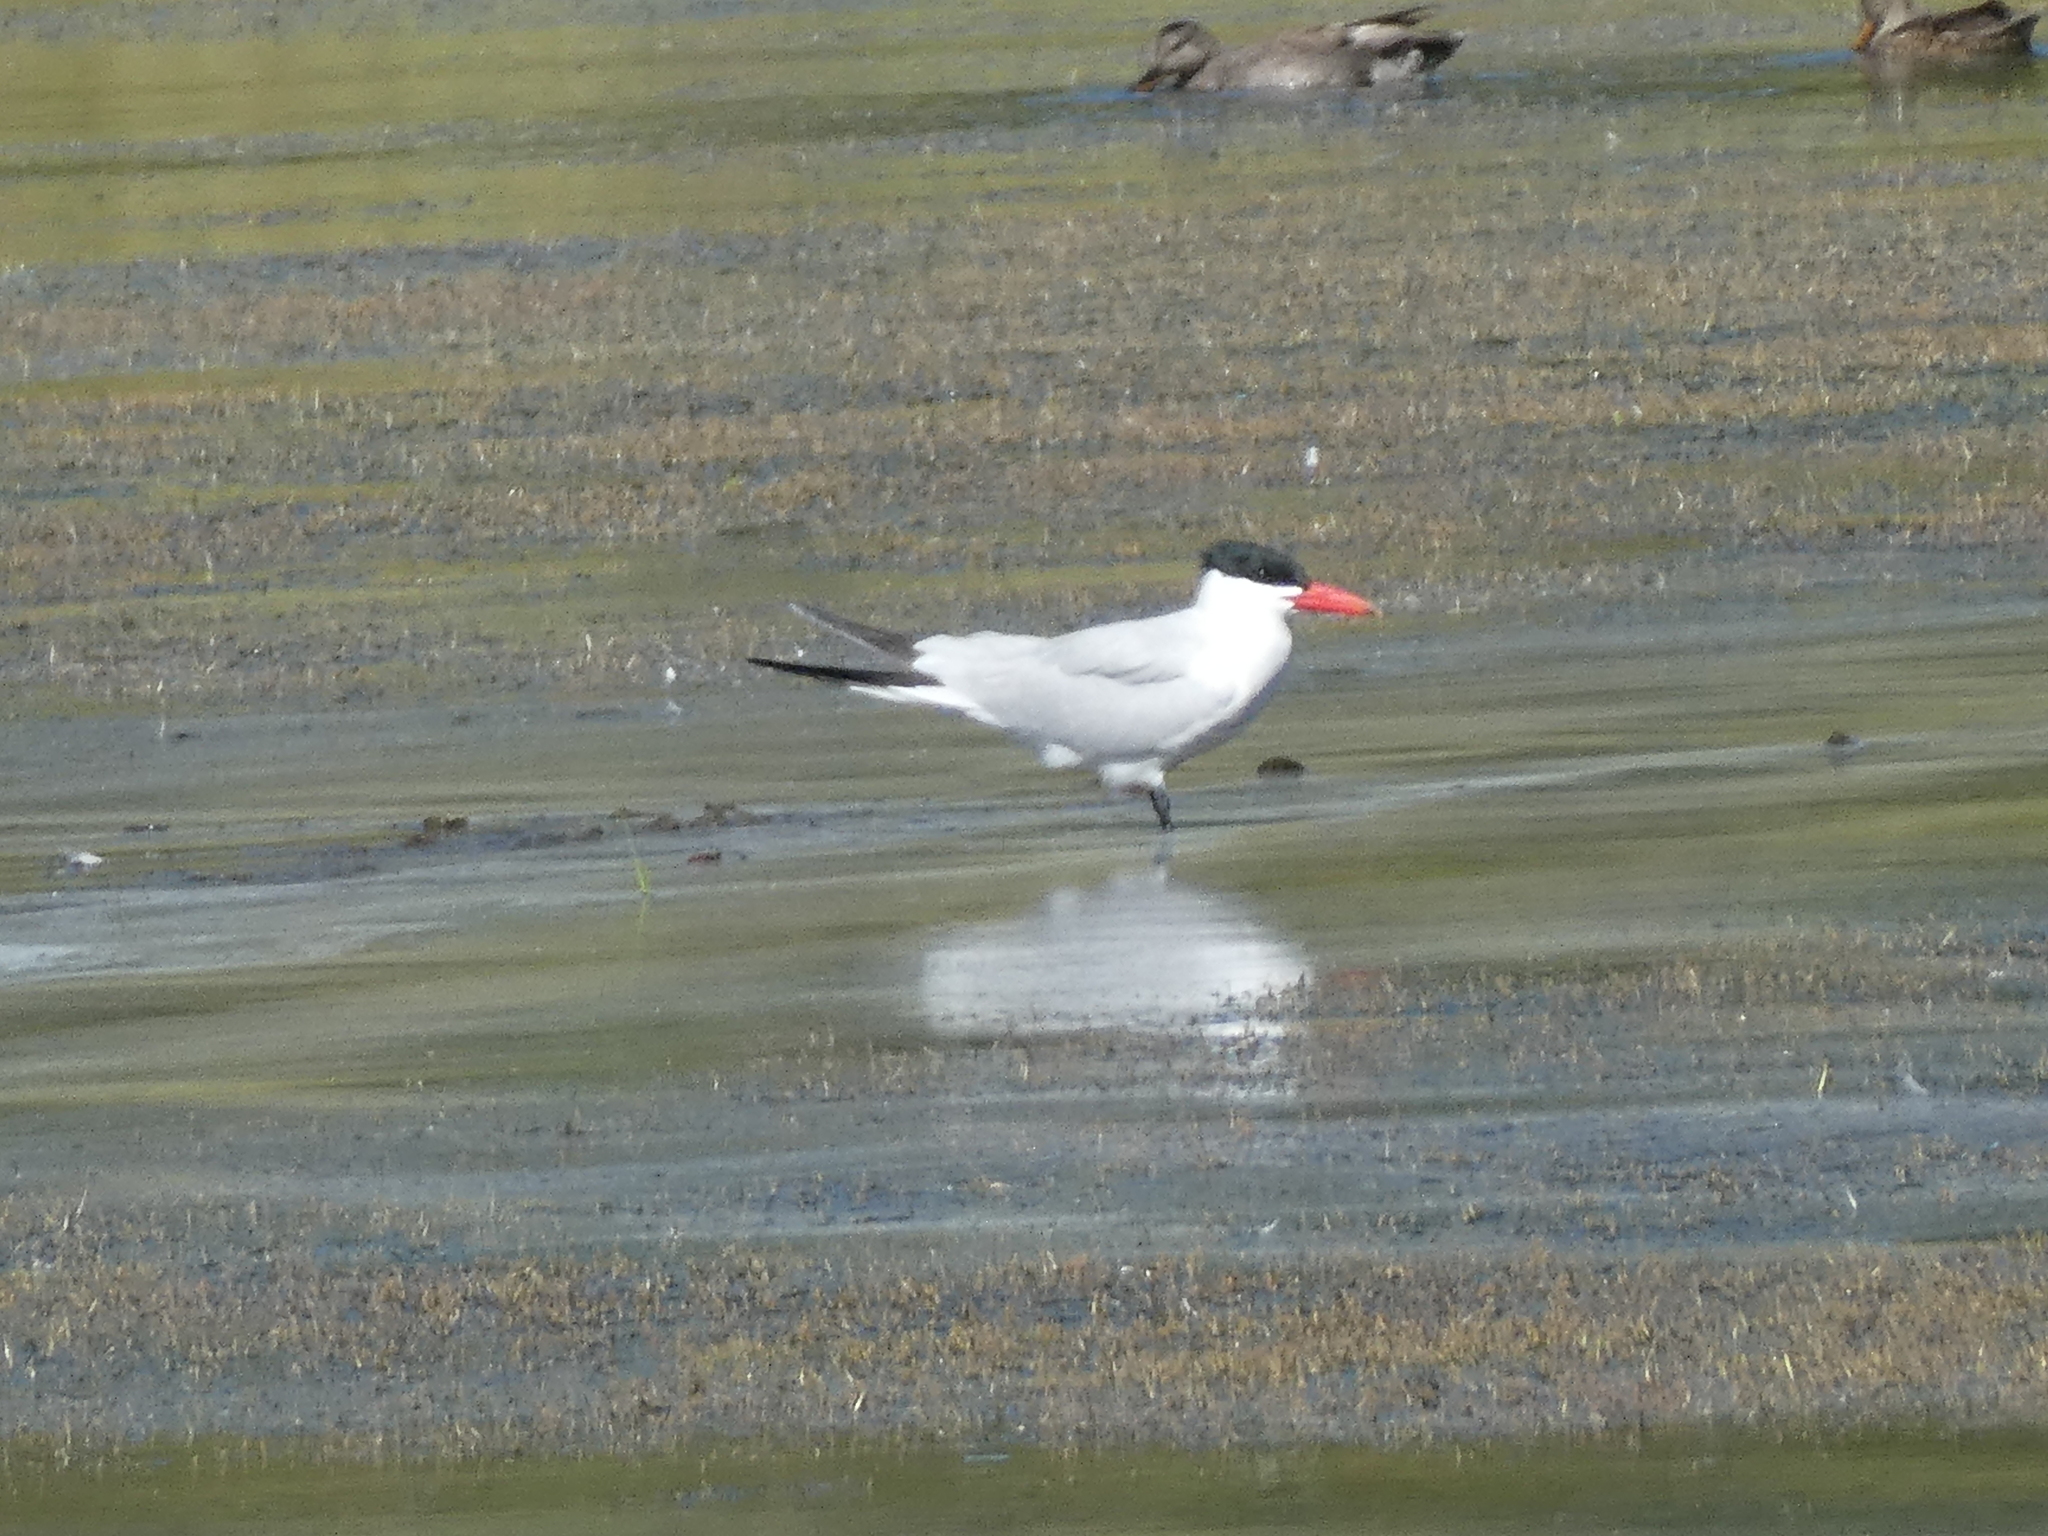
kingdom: Animalia
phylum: Chordata
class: Aves
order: Charadriiformes
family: Laridae
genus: Hydroprogne
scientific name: Hydroprogne caspia
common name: Caspian tern
